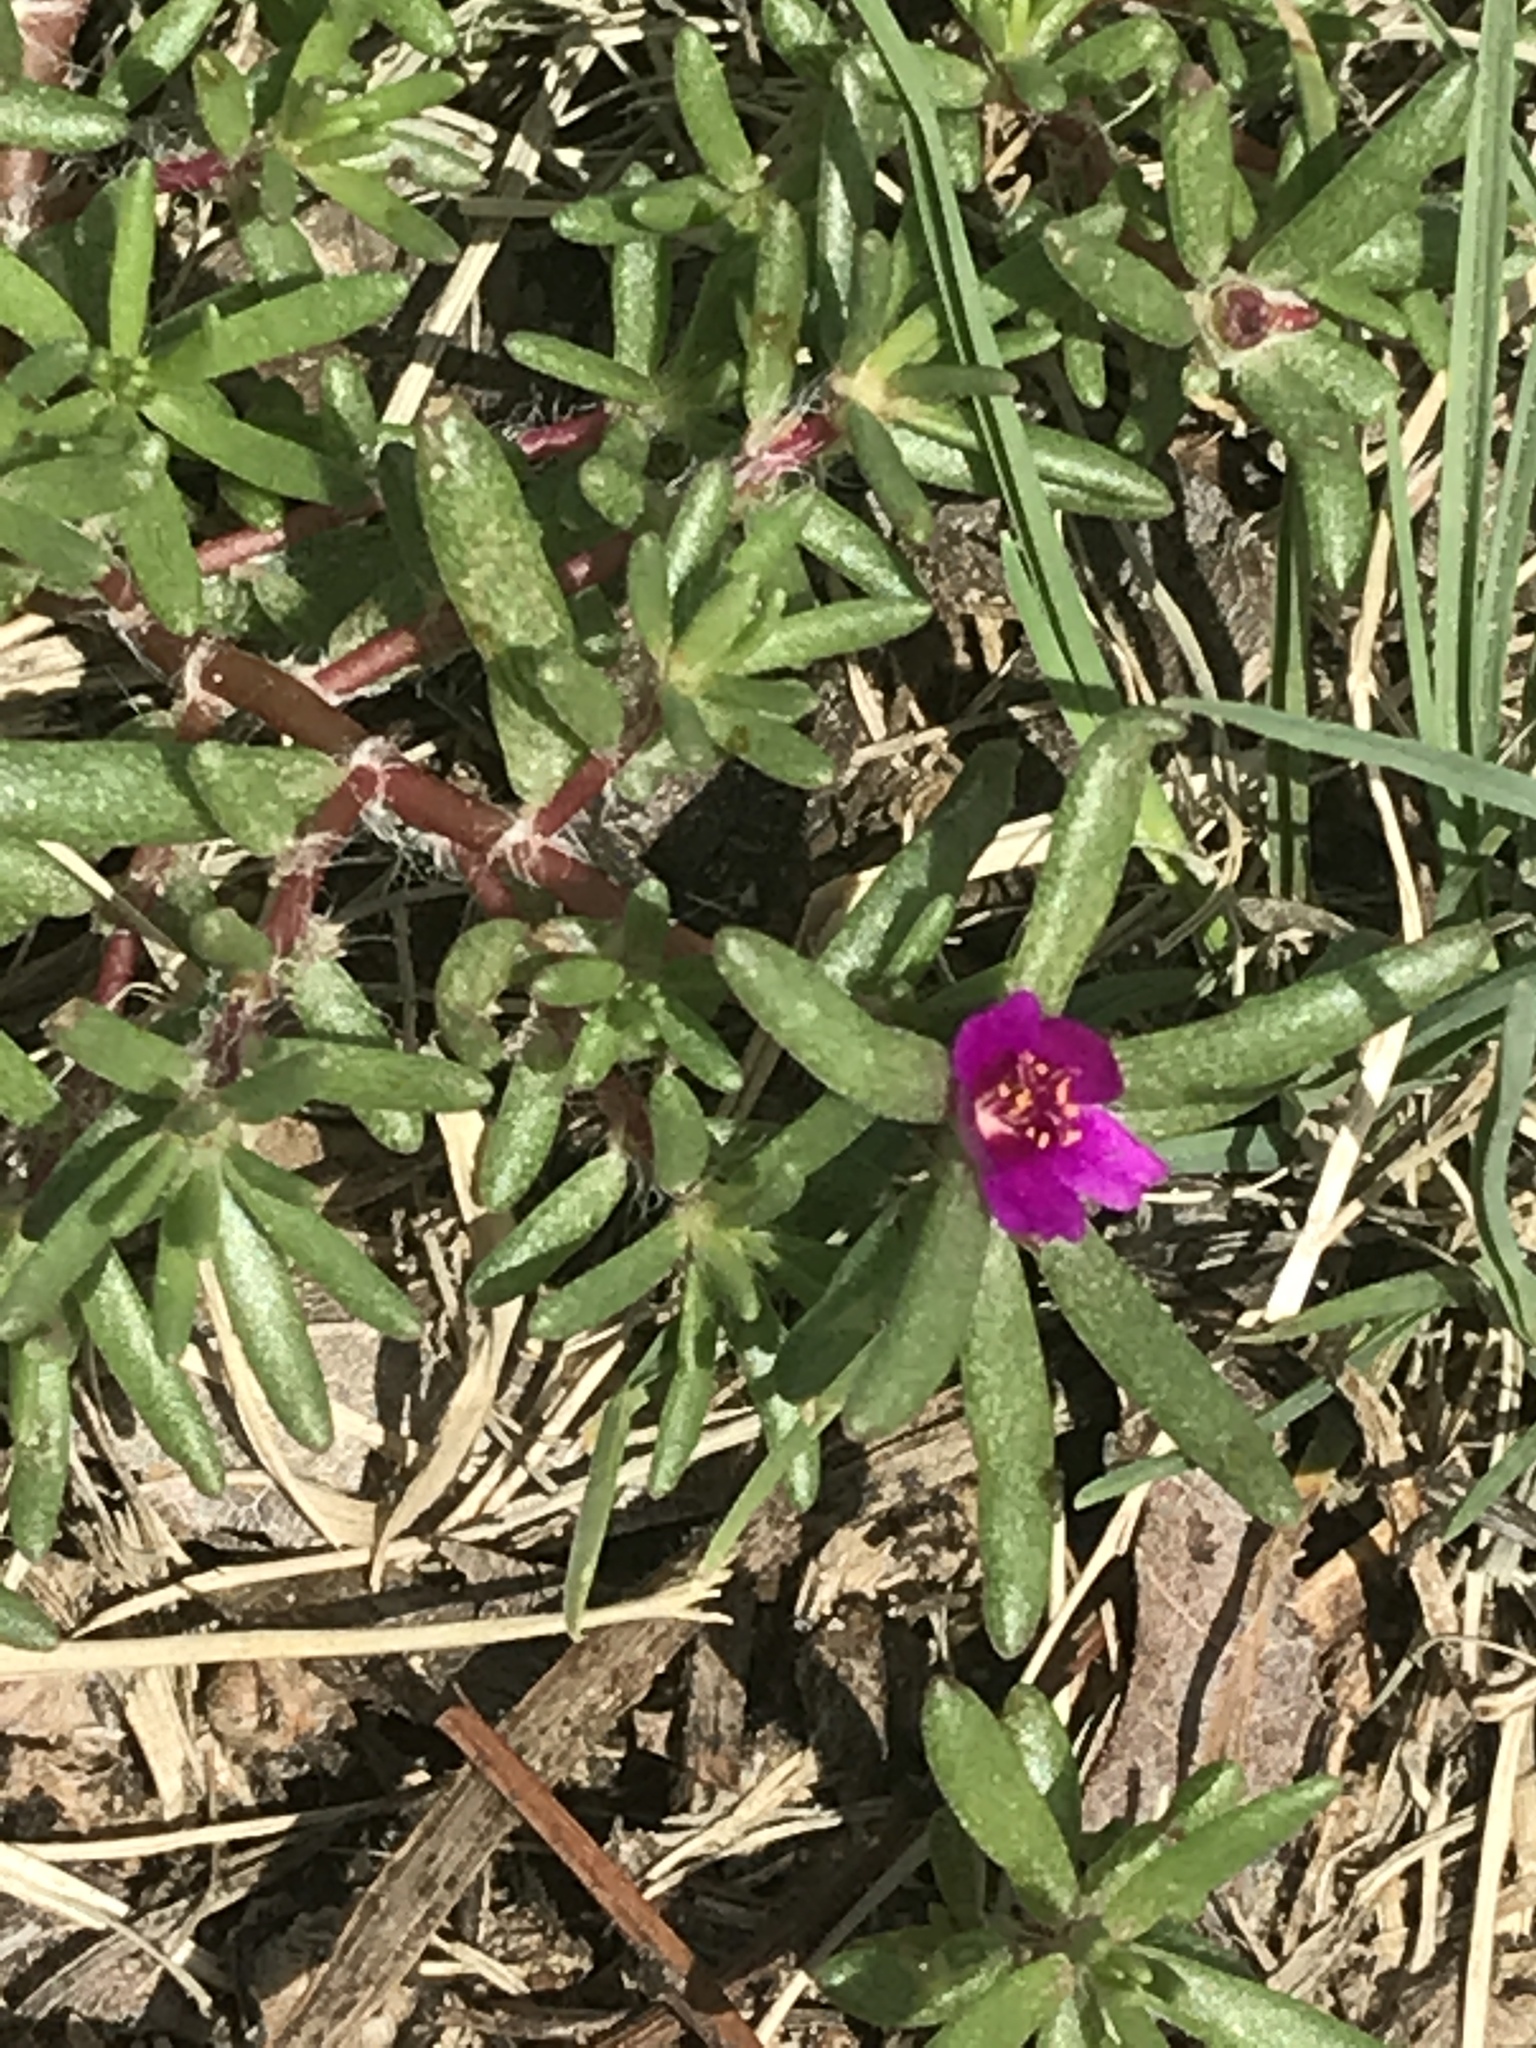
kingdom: Plantae
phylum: Tracheophyta
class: Magnoliopsida
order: Caryophyllales
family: Portulacaceae
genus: Portulaca
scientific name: Portulaca pilosa
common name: Kiss me quick
